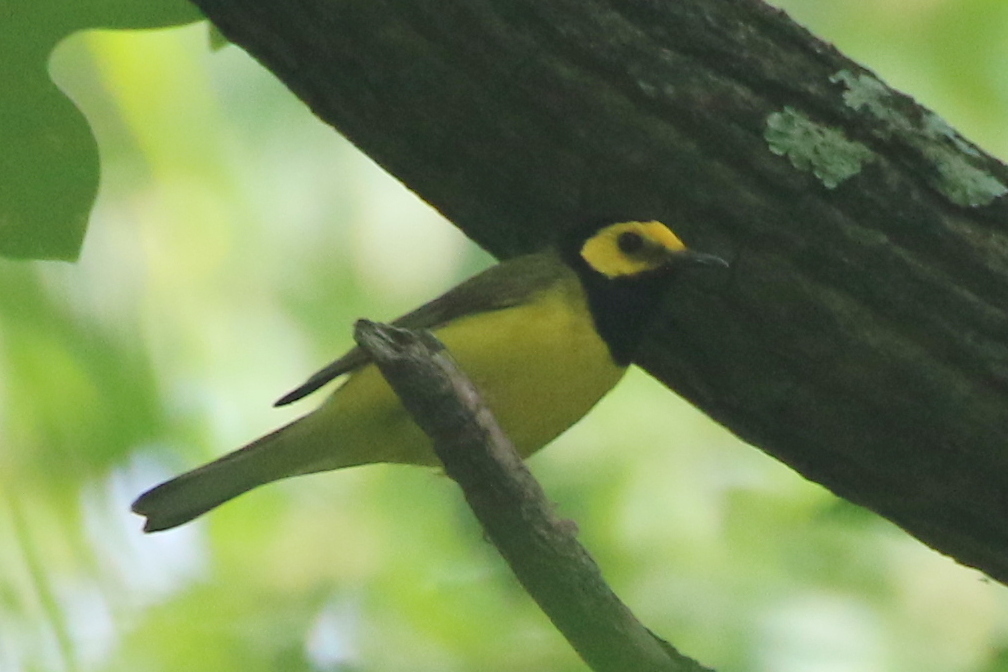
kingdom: Animalia
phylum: Chordata
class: Aves
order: Passeriformes
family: Parulidae
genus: Setophaga
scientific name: Setophaga citrina
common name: Hooded warbler
